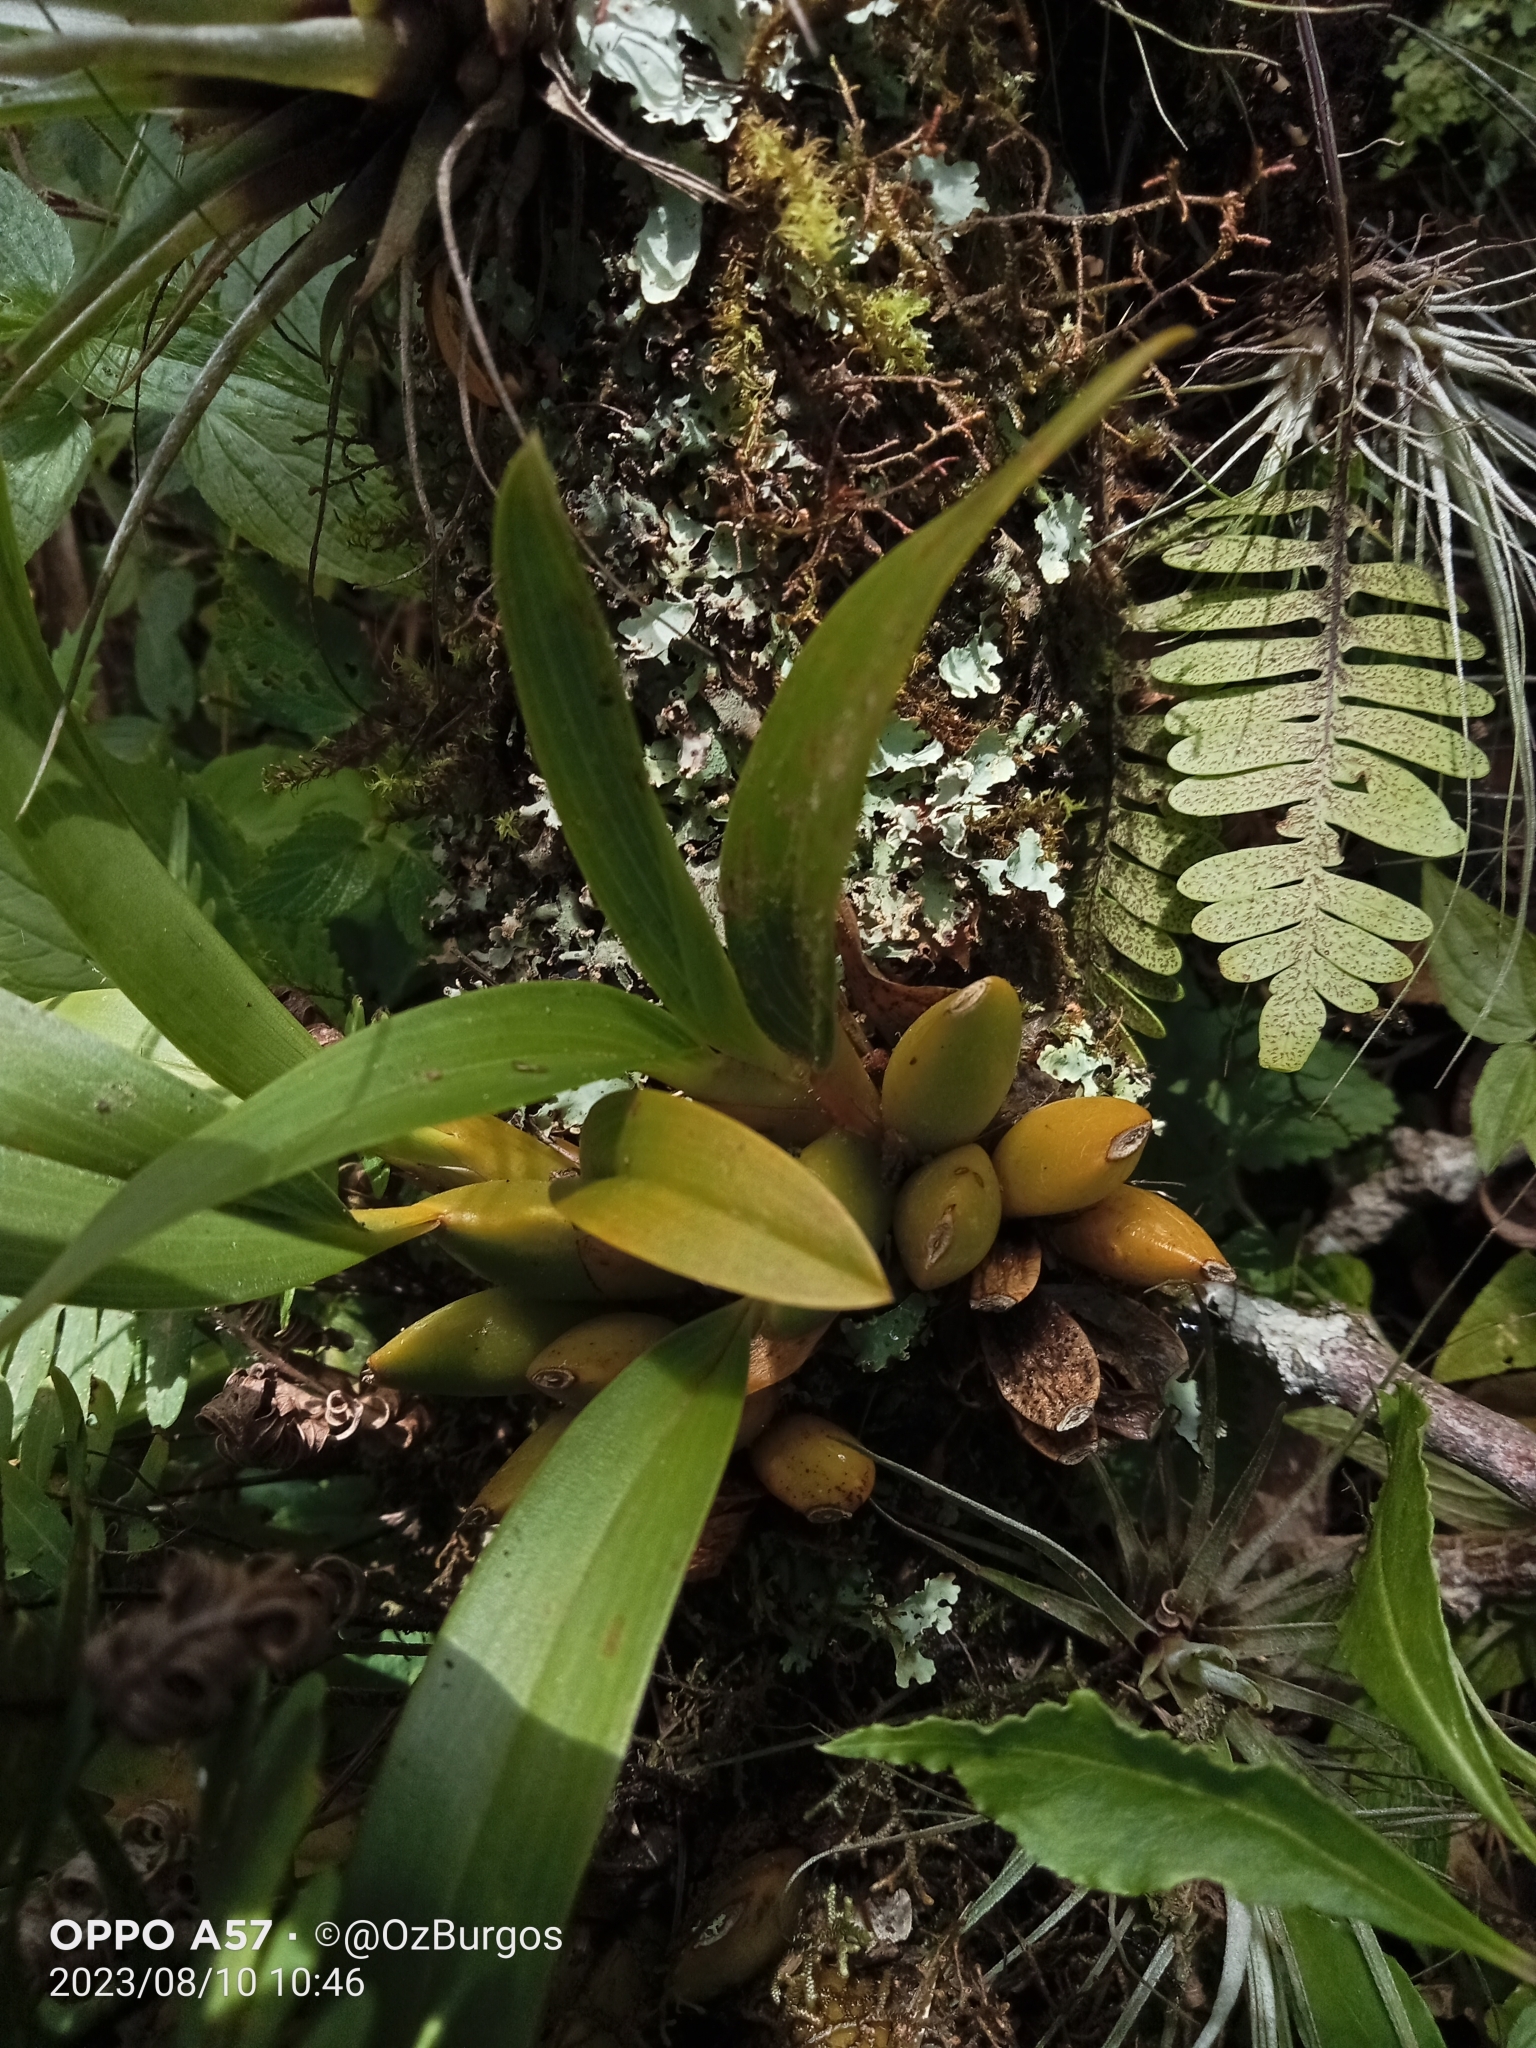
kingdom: Plantae
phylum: Tracheophyta
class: Liliopsida
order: Asparagales
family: Orchidaceae
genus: Rhynchostele
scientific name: Rhynchostele maculata
